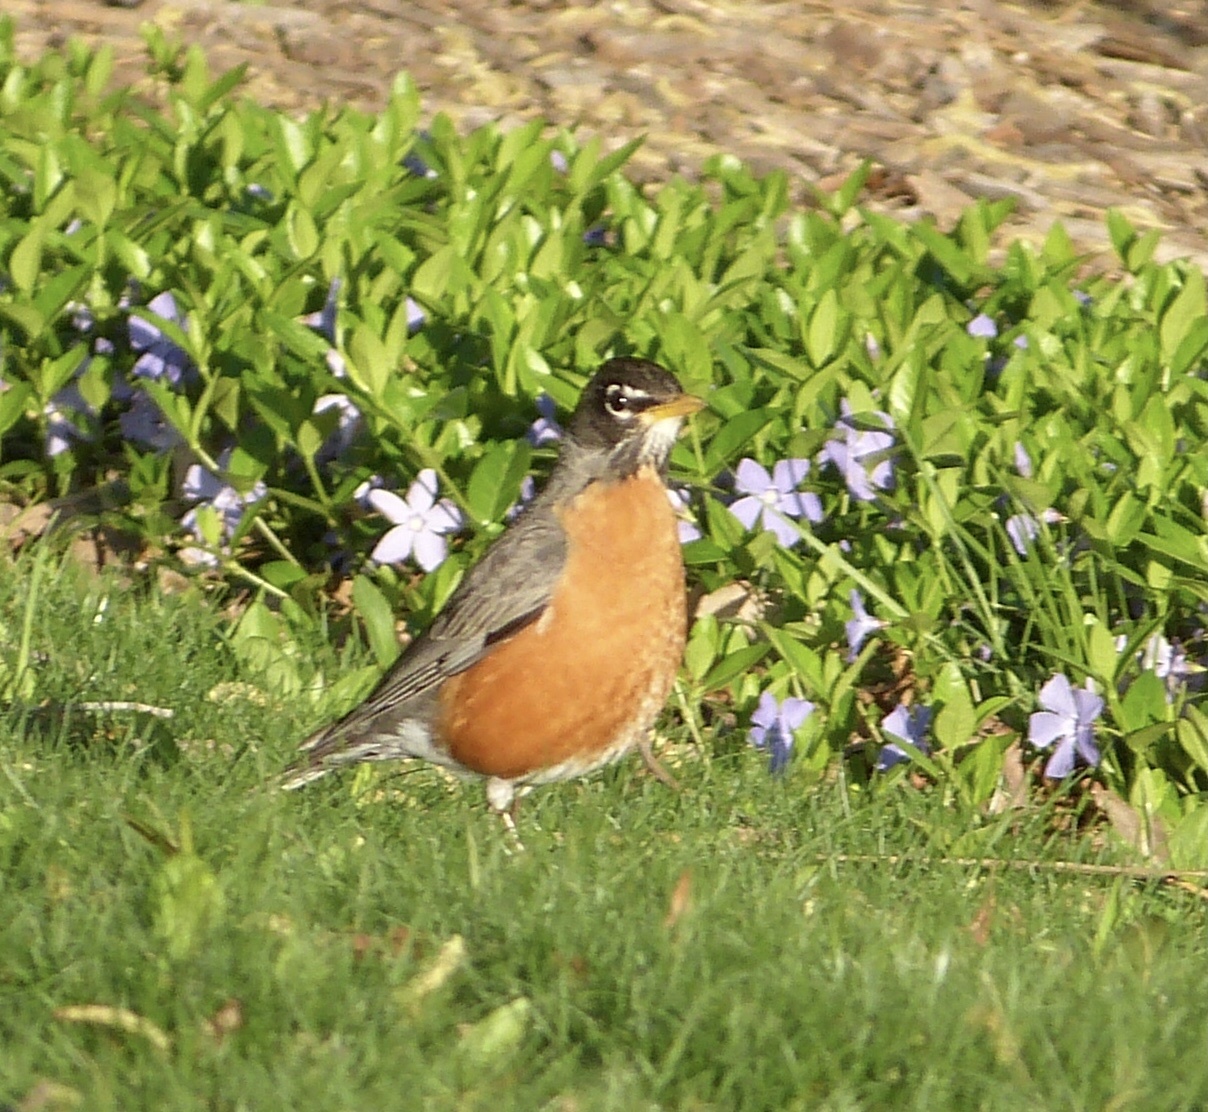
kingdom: Animalia
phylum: Chordata
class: Aves
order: Passeriformes
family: Turdidae
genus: Turdus
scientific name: Turdus migratorius
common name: American robin
